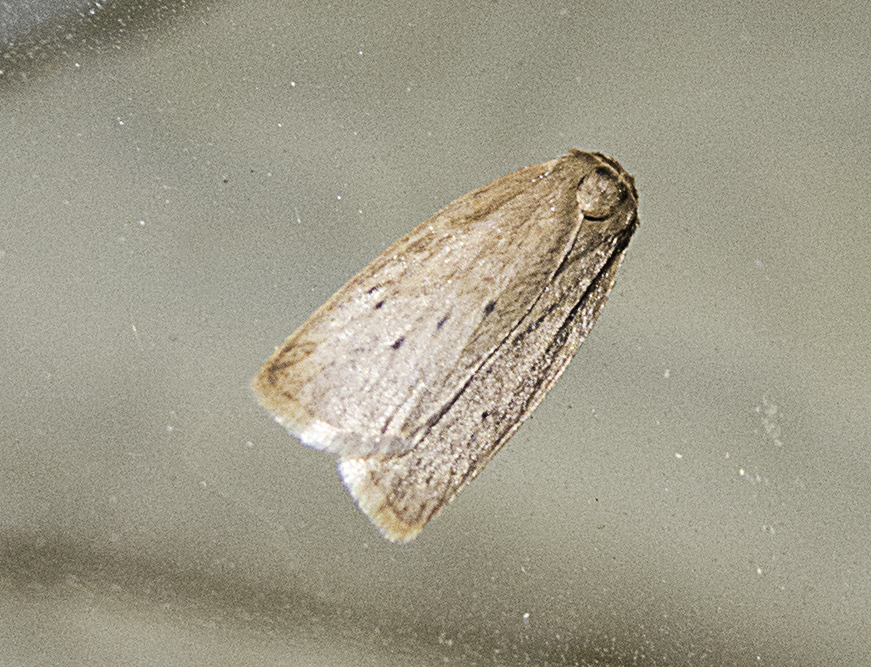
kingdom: Animalia
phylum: Arthropoda
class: Insecta
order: Lepidoptera
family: Erebidae
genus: Pelosia
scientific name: Pelosia obtusa
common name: Small dotted footman
